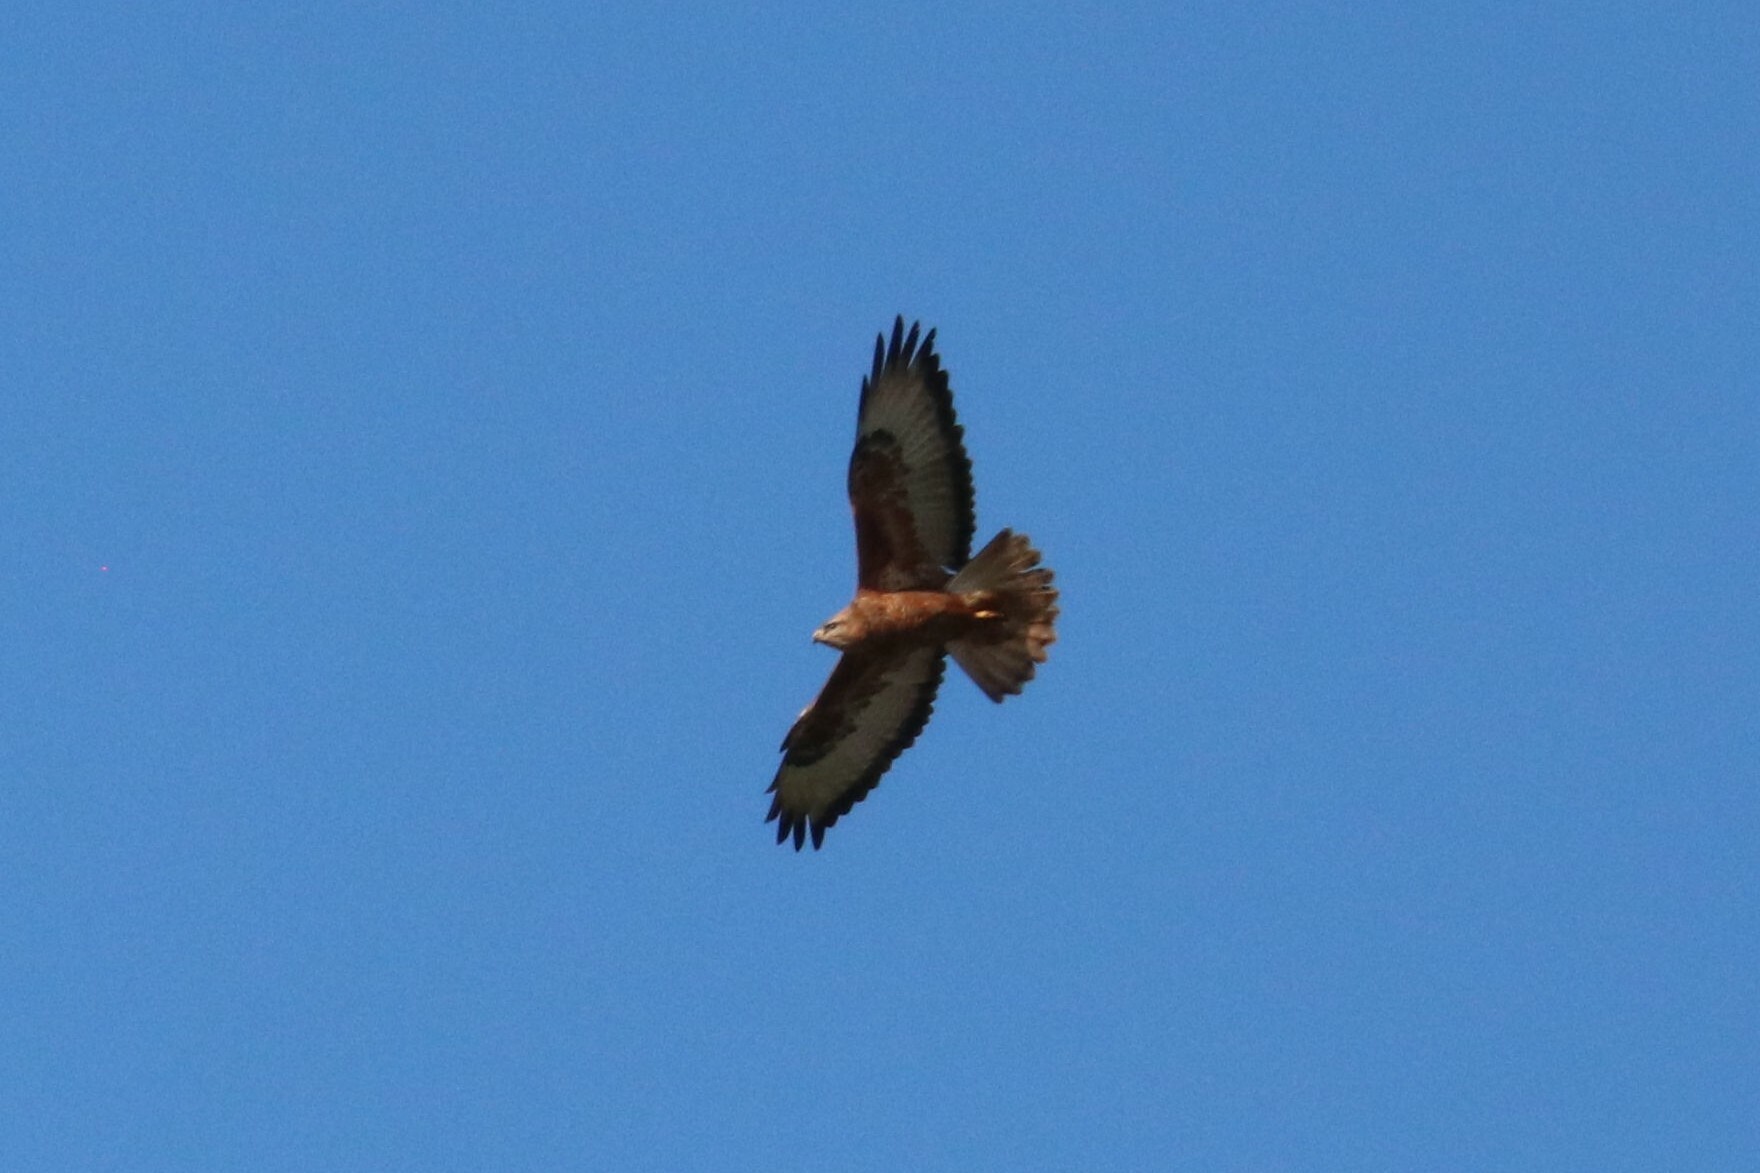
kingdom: Animalia
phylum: Chordata
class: Aves
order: Accipitriformes
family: Accipitridae
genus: Buteo
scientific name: Buteo buteo
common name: Common buzzard
